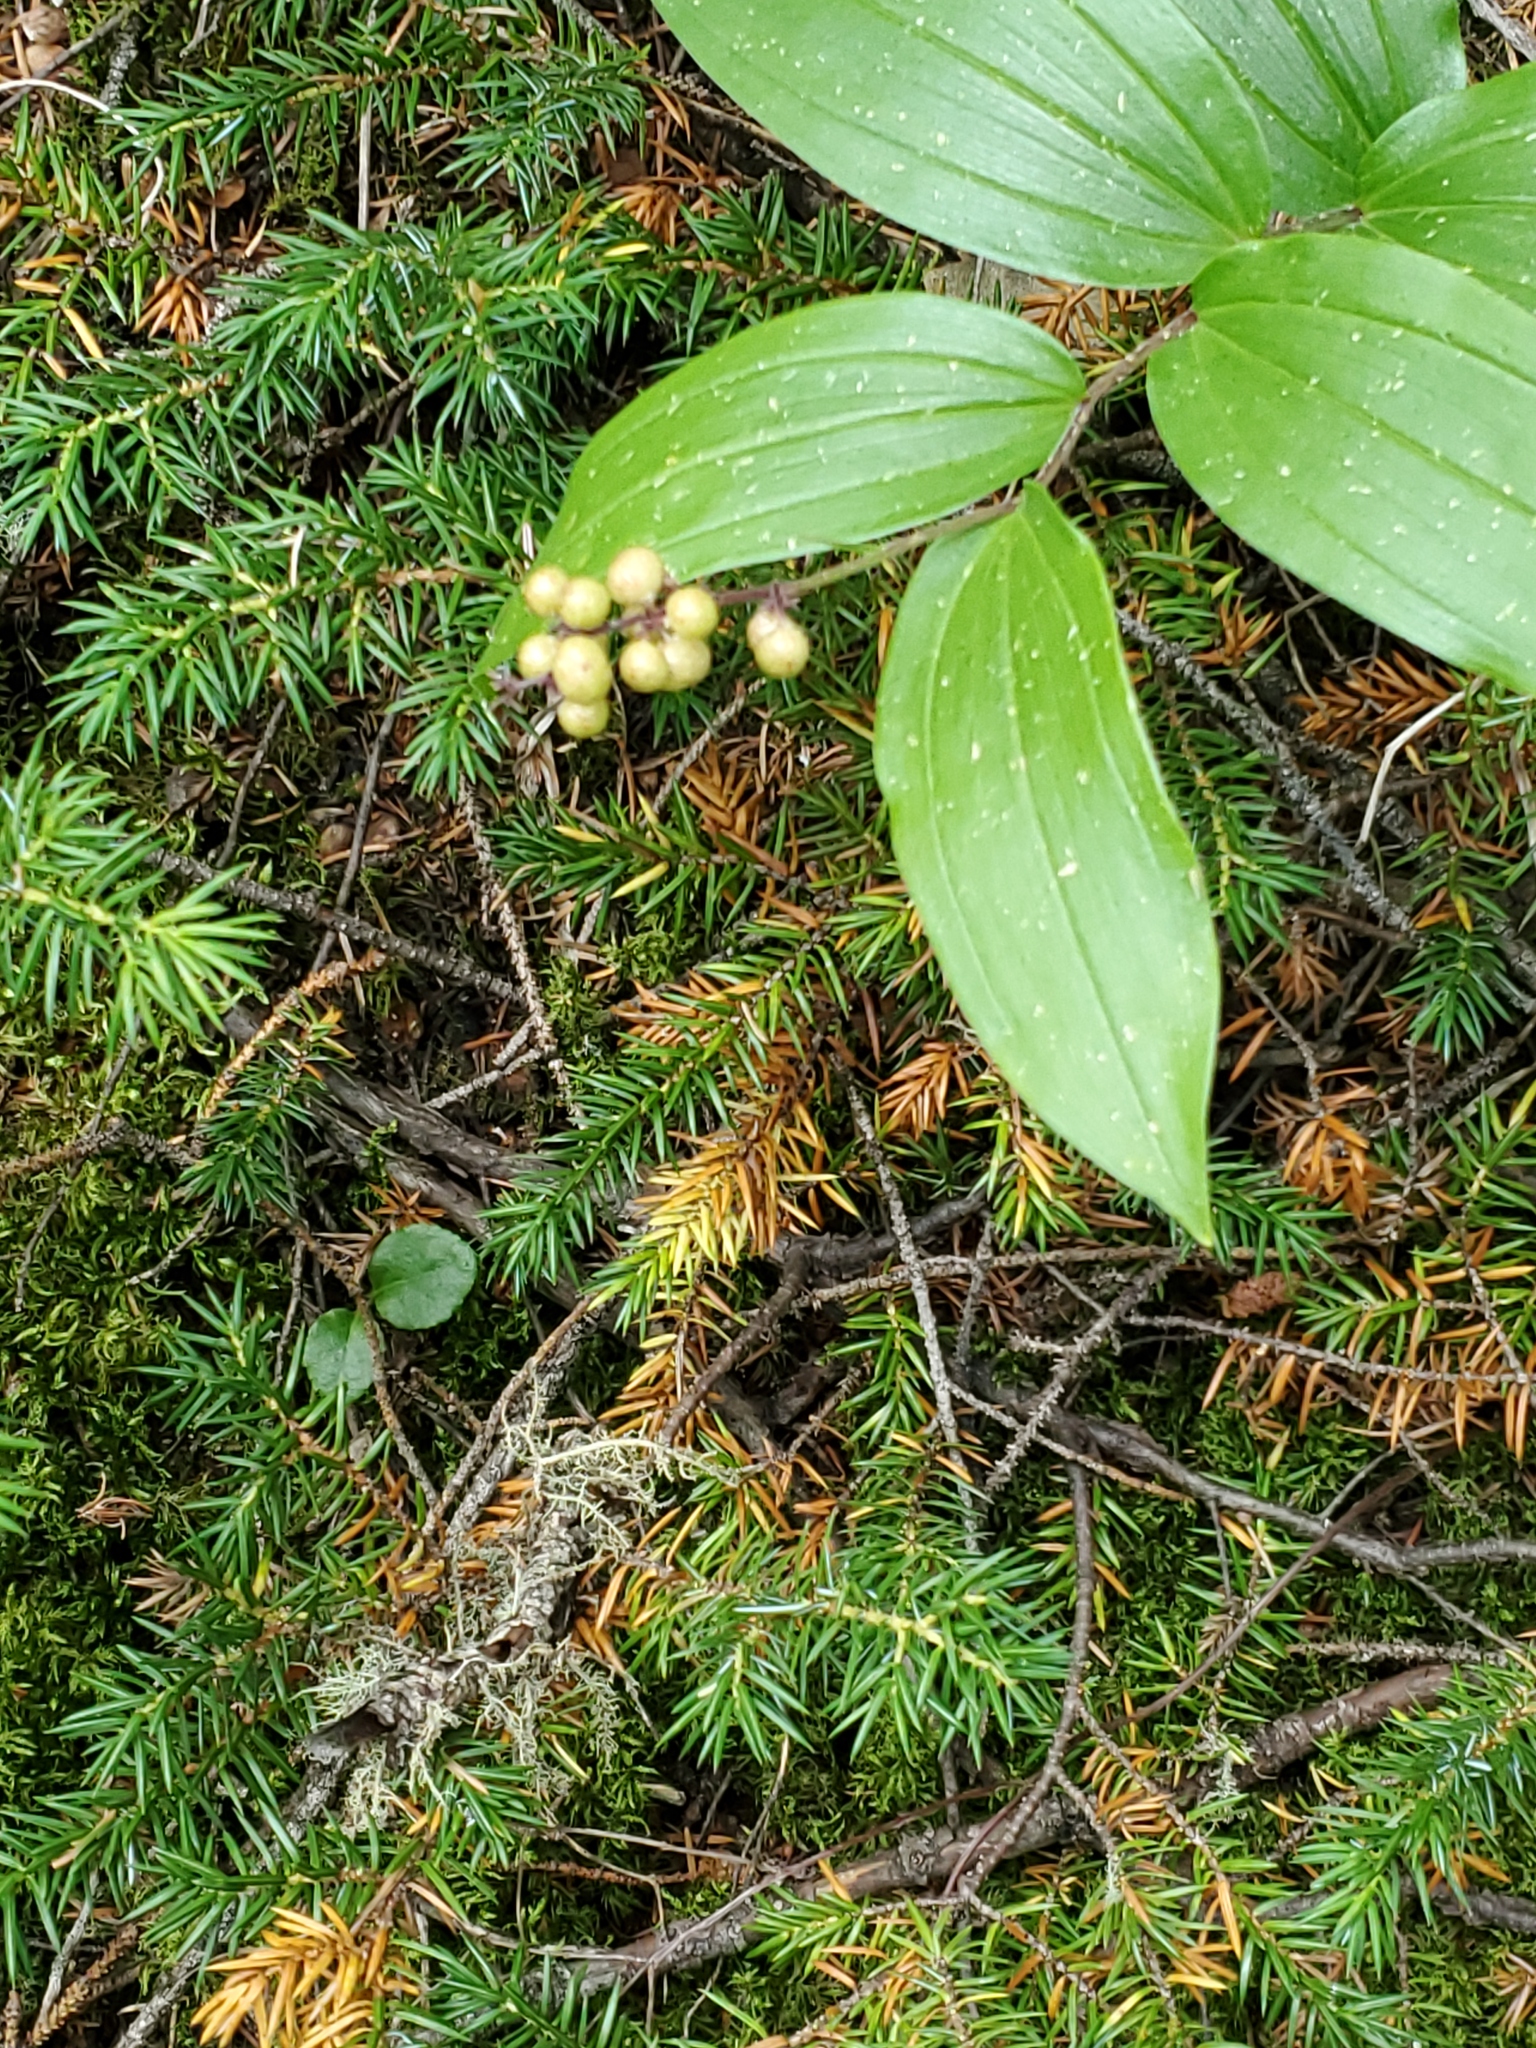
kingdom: Plantae
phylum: Tracheophyta
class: Liliopsida
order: Asparagales
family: Asparagaceae
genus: Maianthemum
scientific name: Maianthemum racemosum
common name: False spikenard
